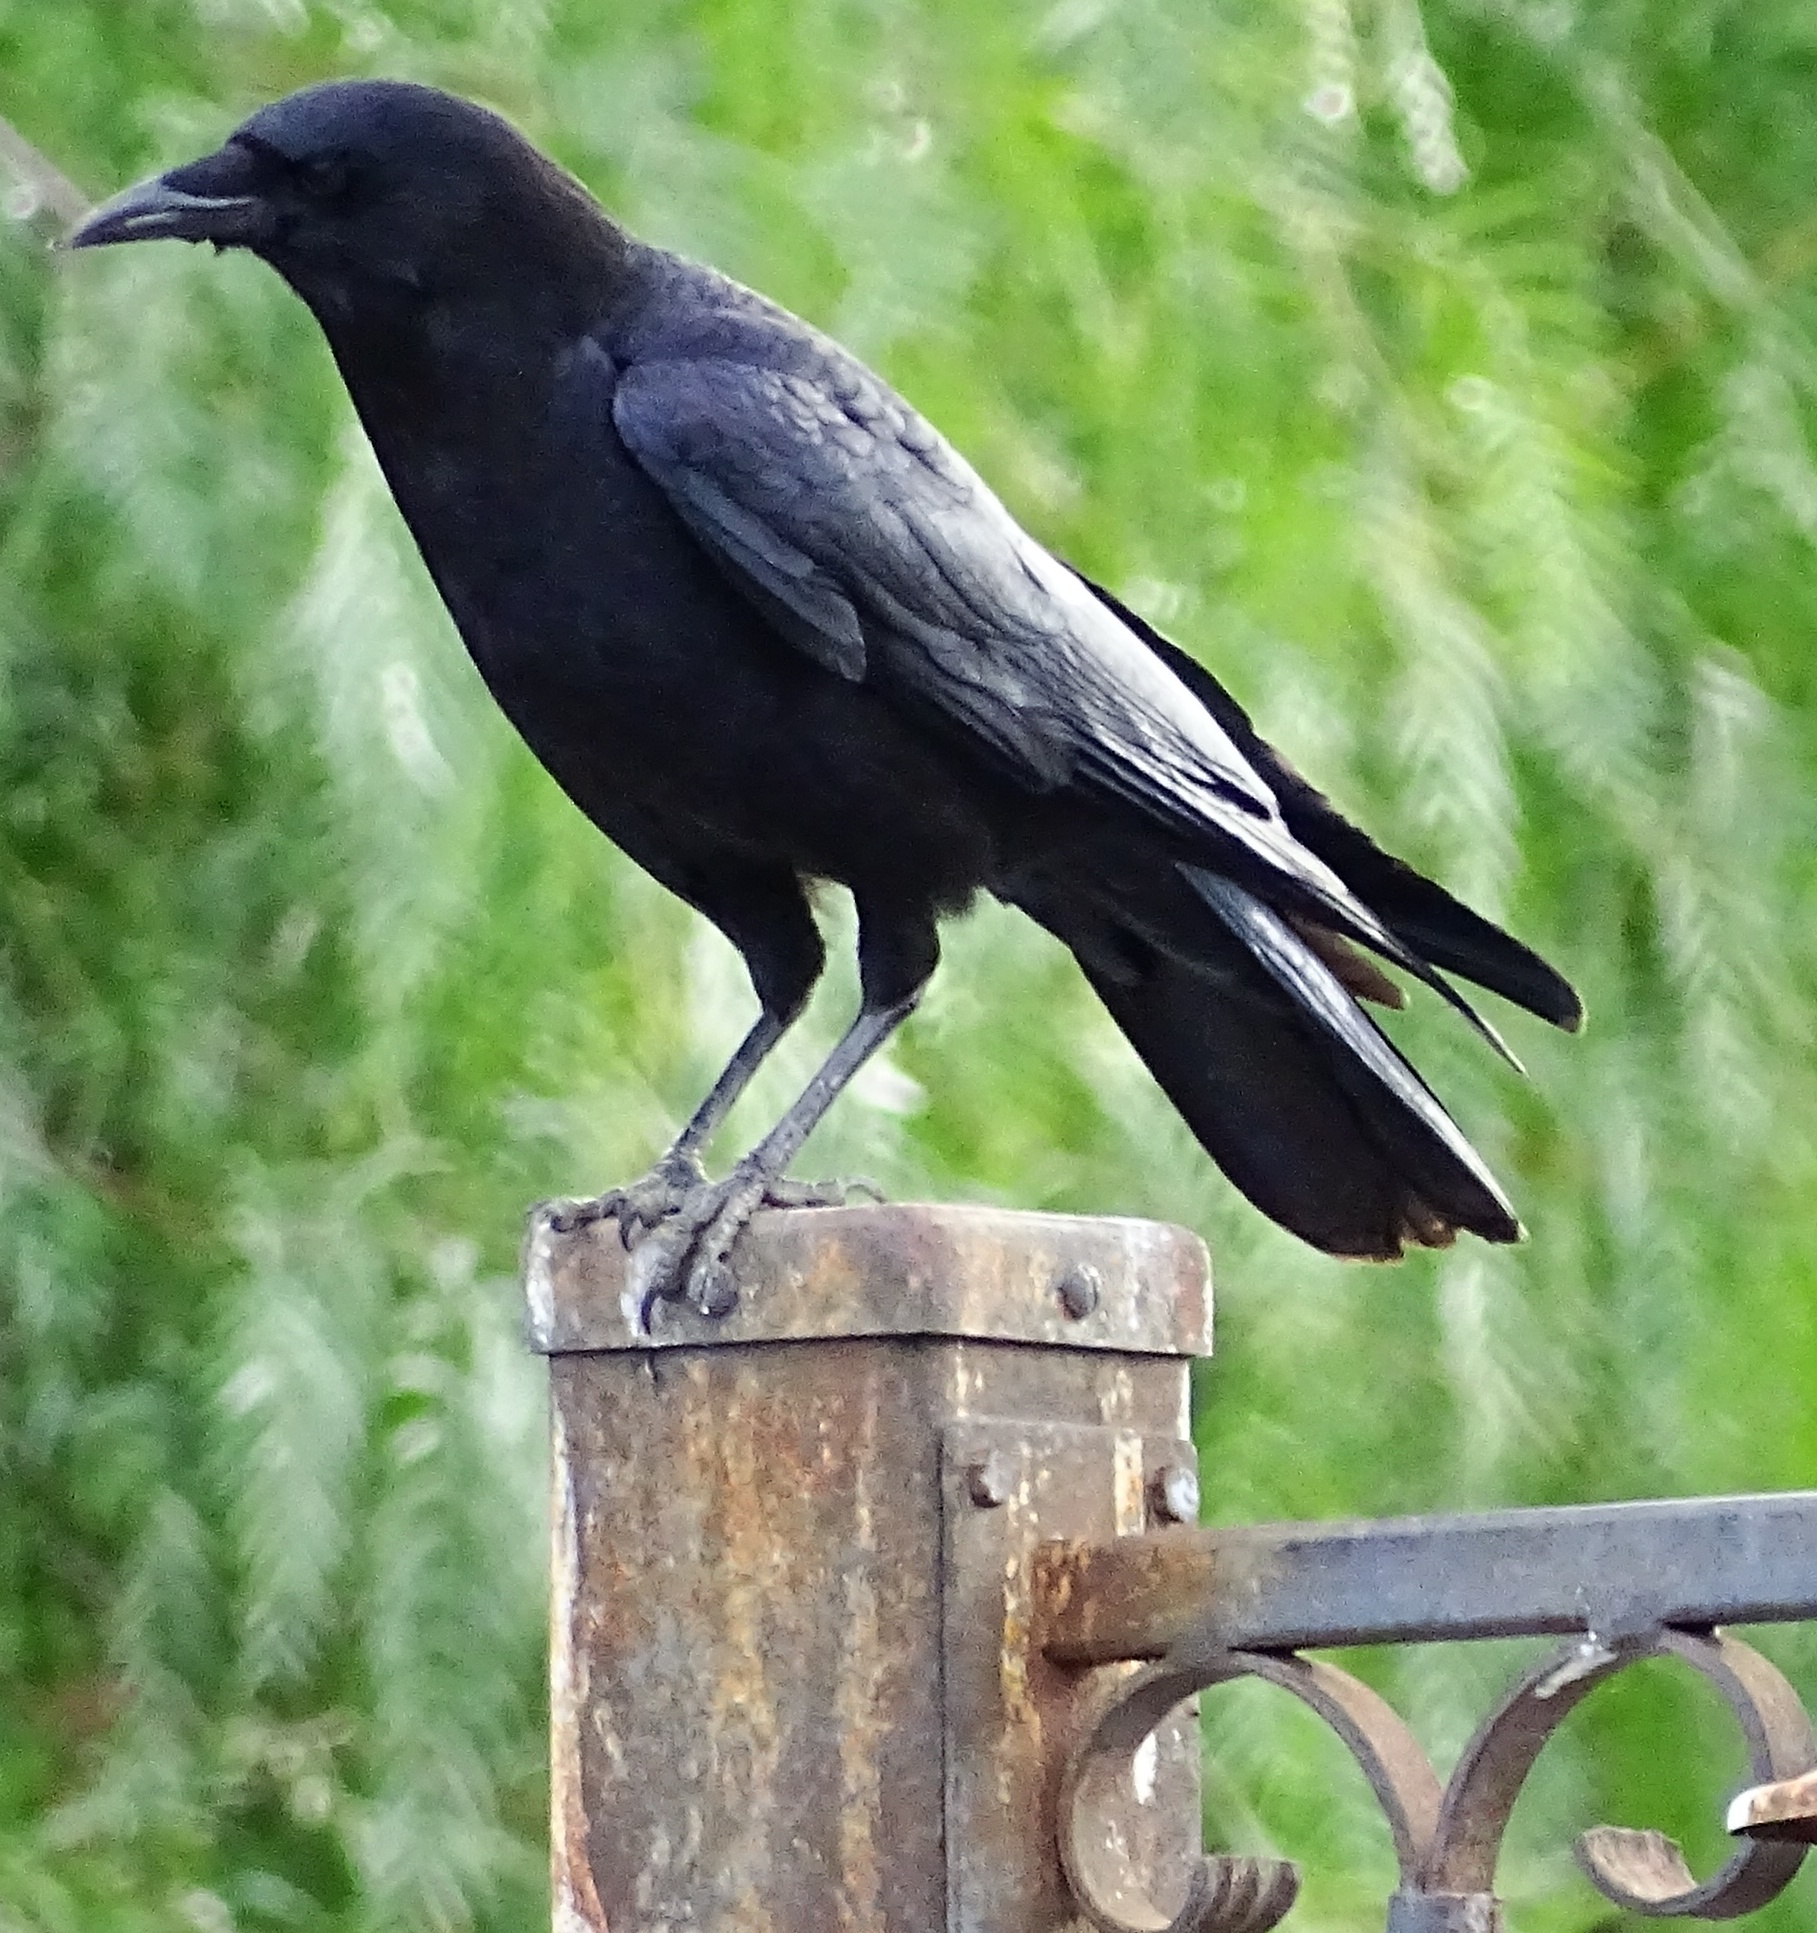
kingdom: Animalia
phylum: Chordata
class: Aves
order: Passeriformes
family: Corvidae
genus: Corvus
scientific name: Corvus brachyrhynchos
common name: American crow
